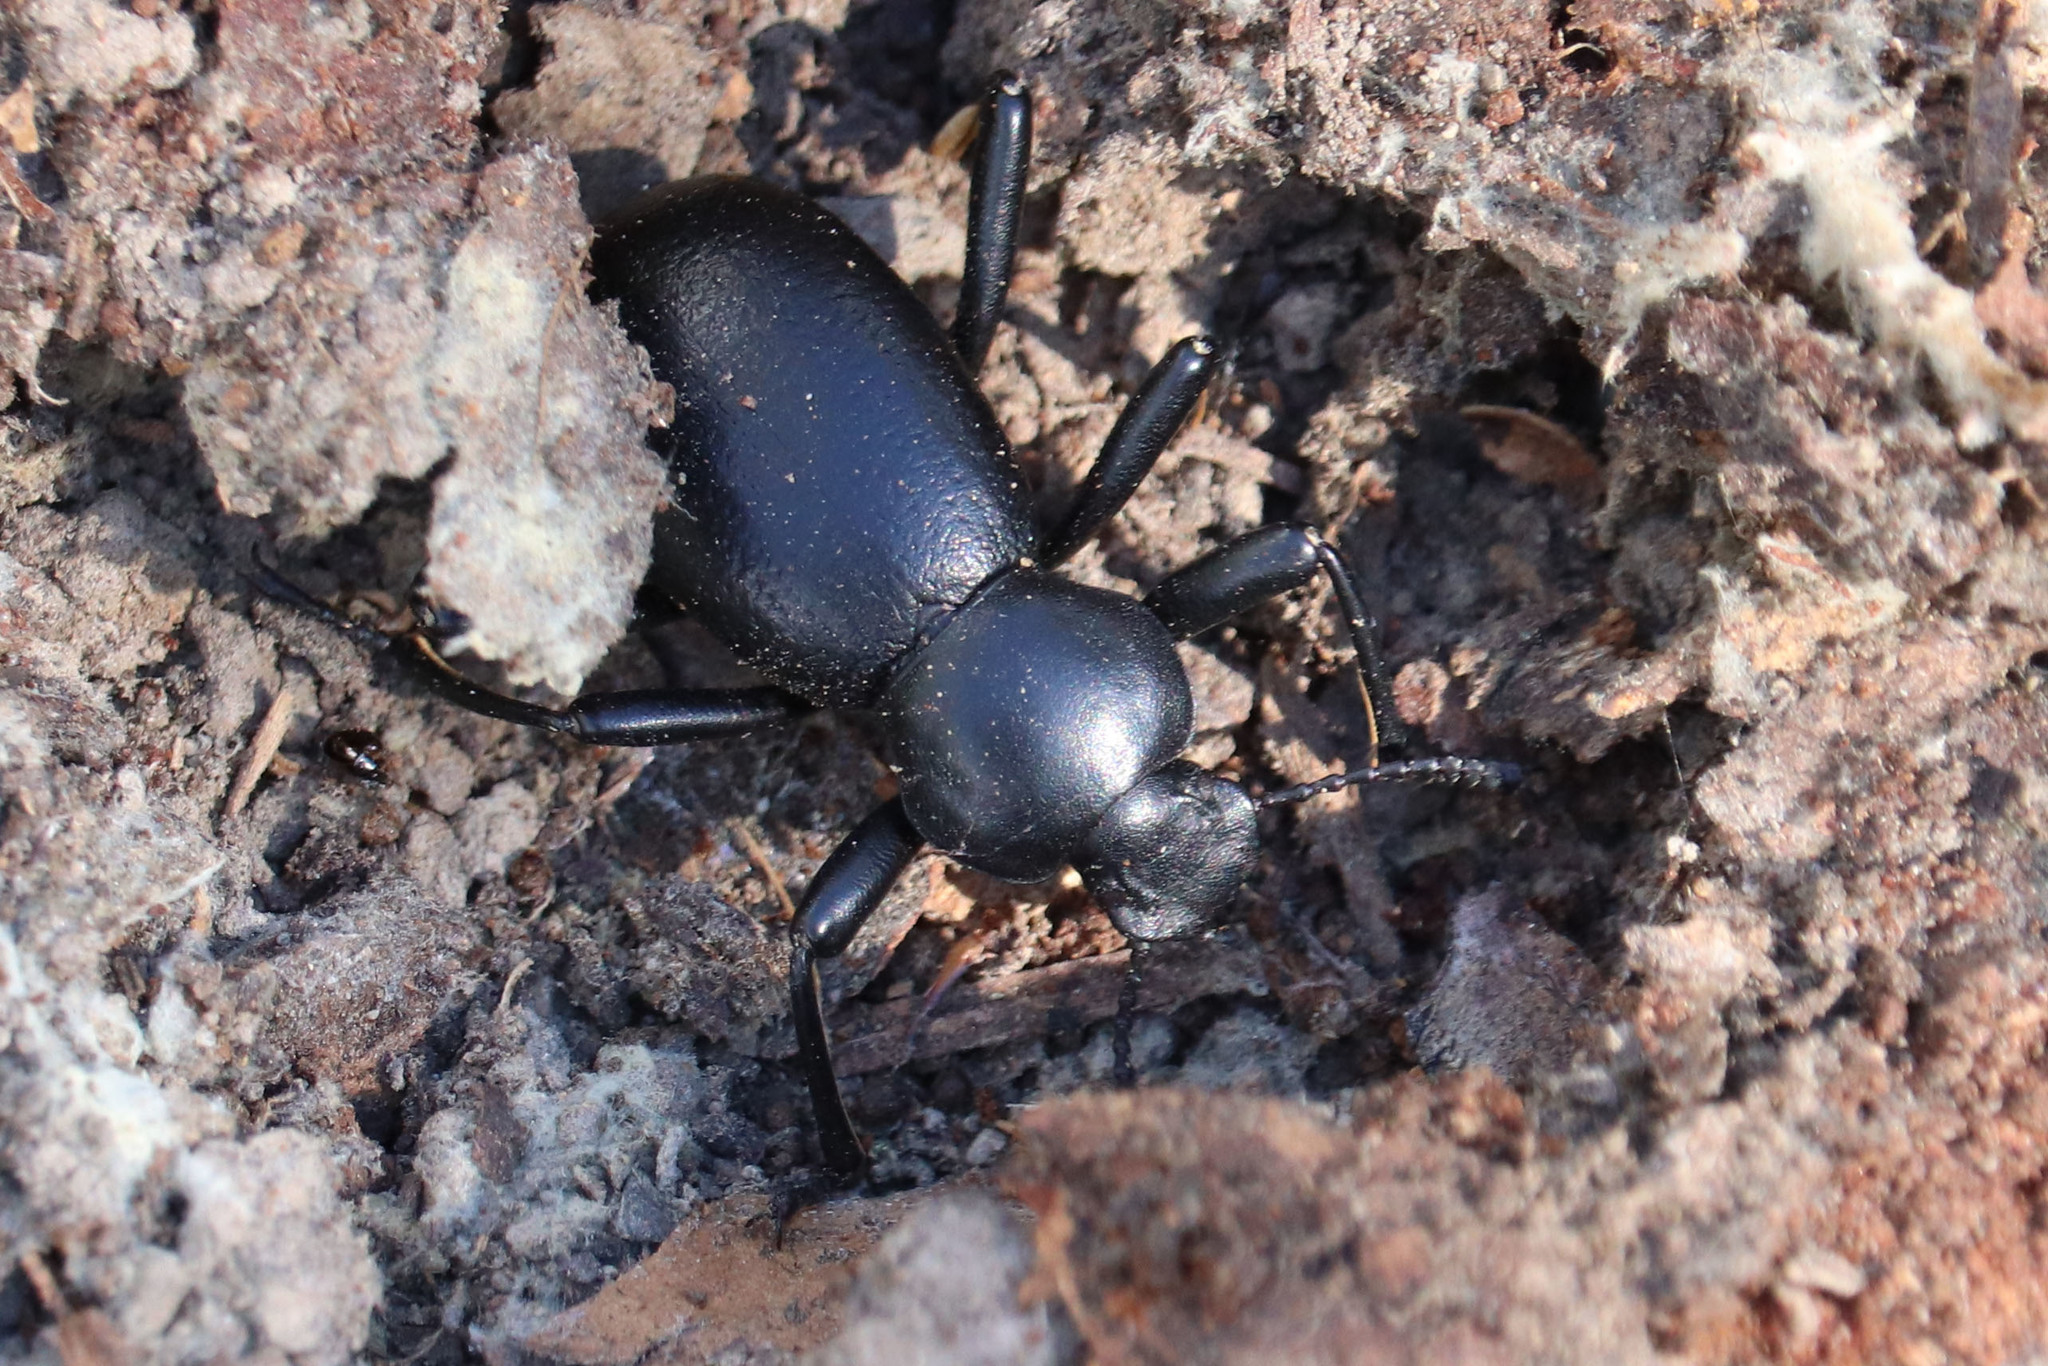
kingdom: Animalia
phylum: Arthropoda
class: Insecta
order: Coleoptera
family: Tenebrionidae
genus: Coelocnemis
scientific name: Coelocnemis dilaticollis
